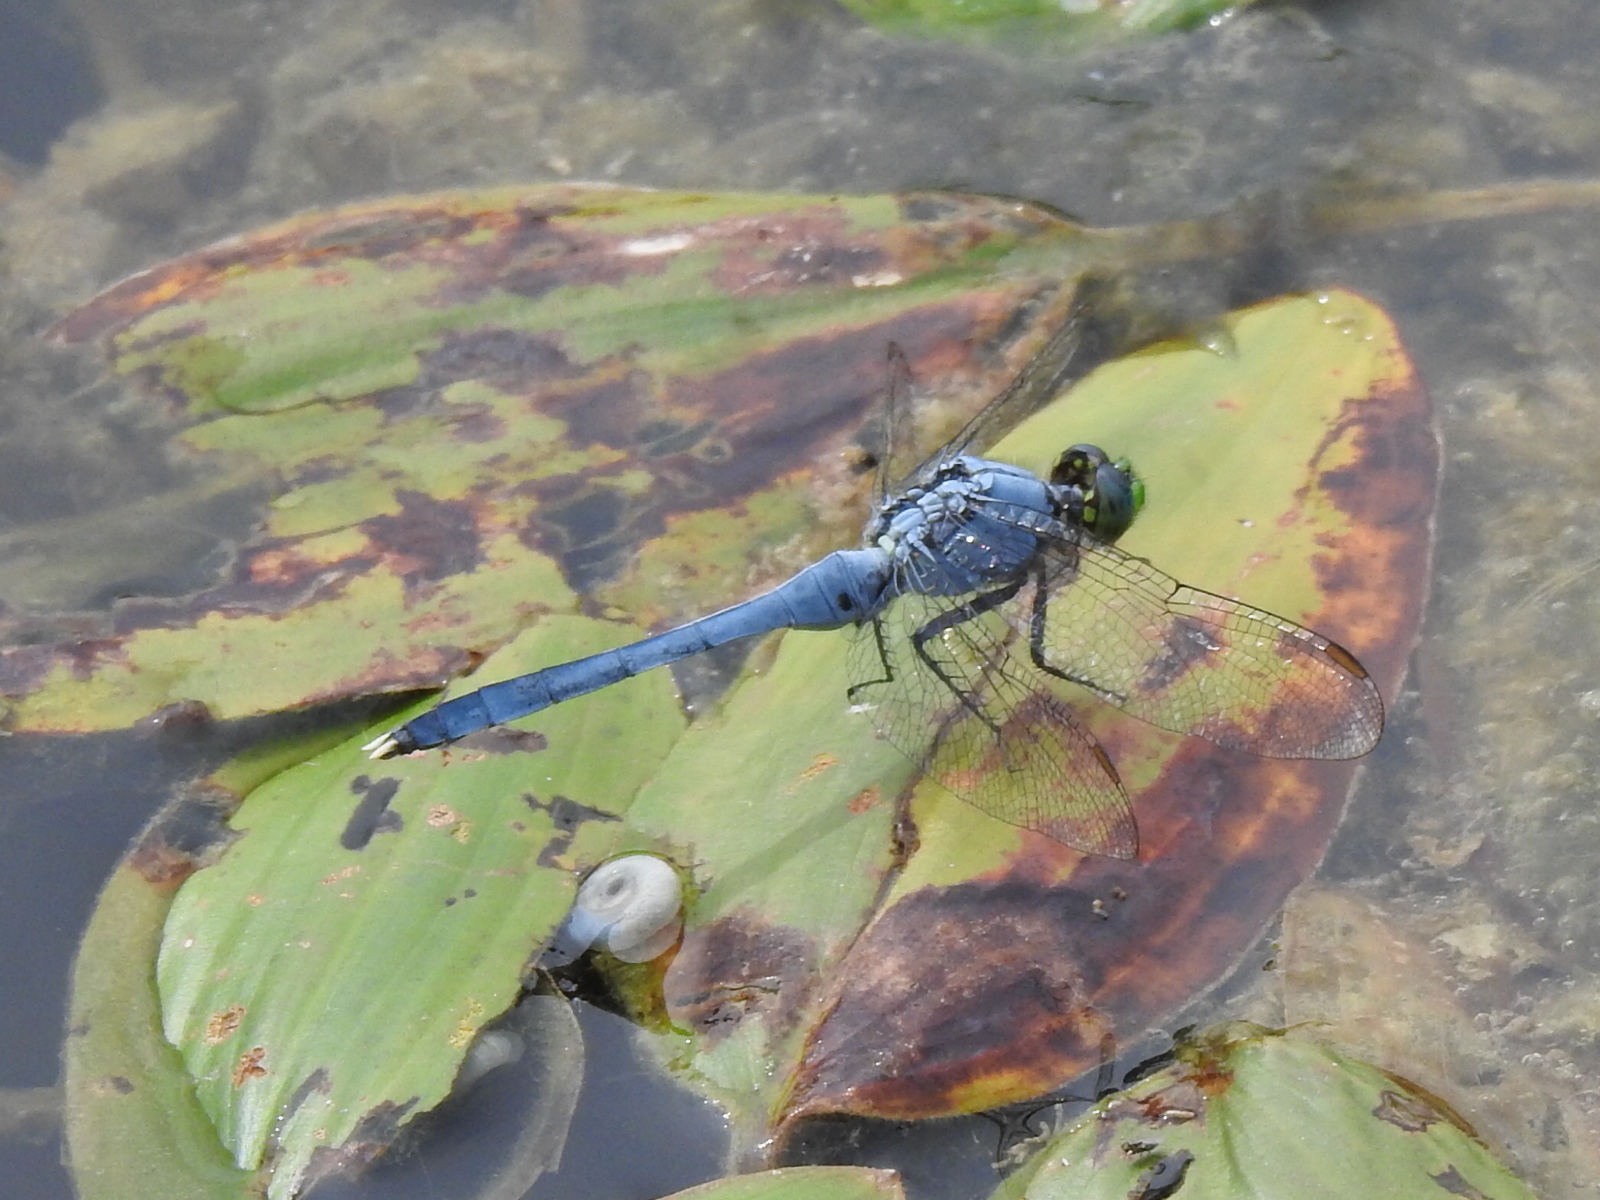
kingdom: Animalia
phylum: Arthropoda
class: Insecta
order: Odonata
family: Libellulidae
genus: Erythemis
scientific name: Erythemis simplicicollis
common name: Eastern pondhawk
